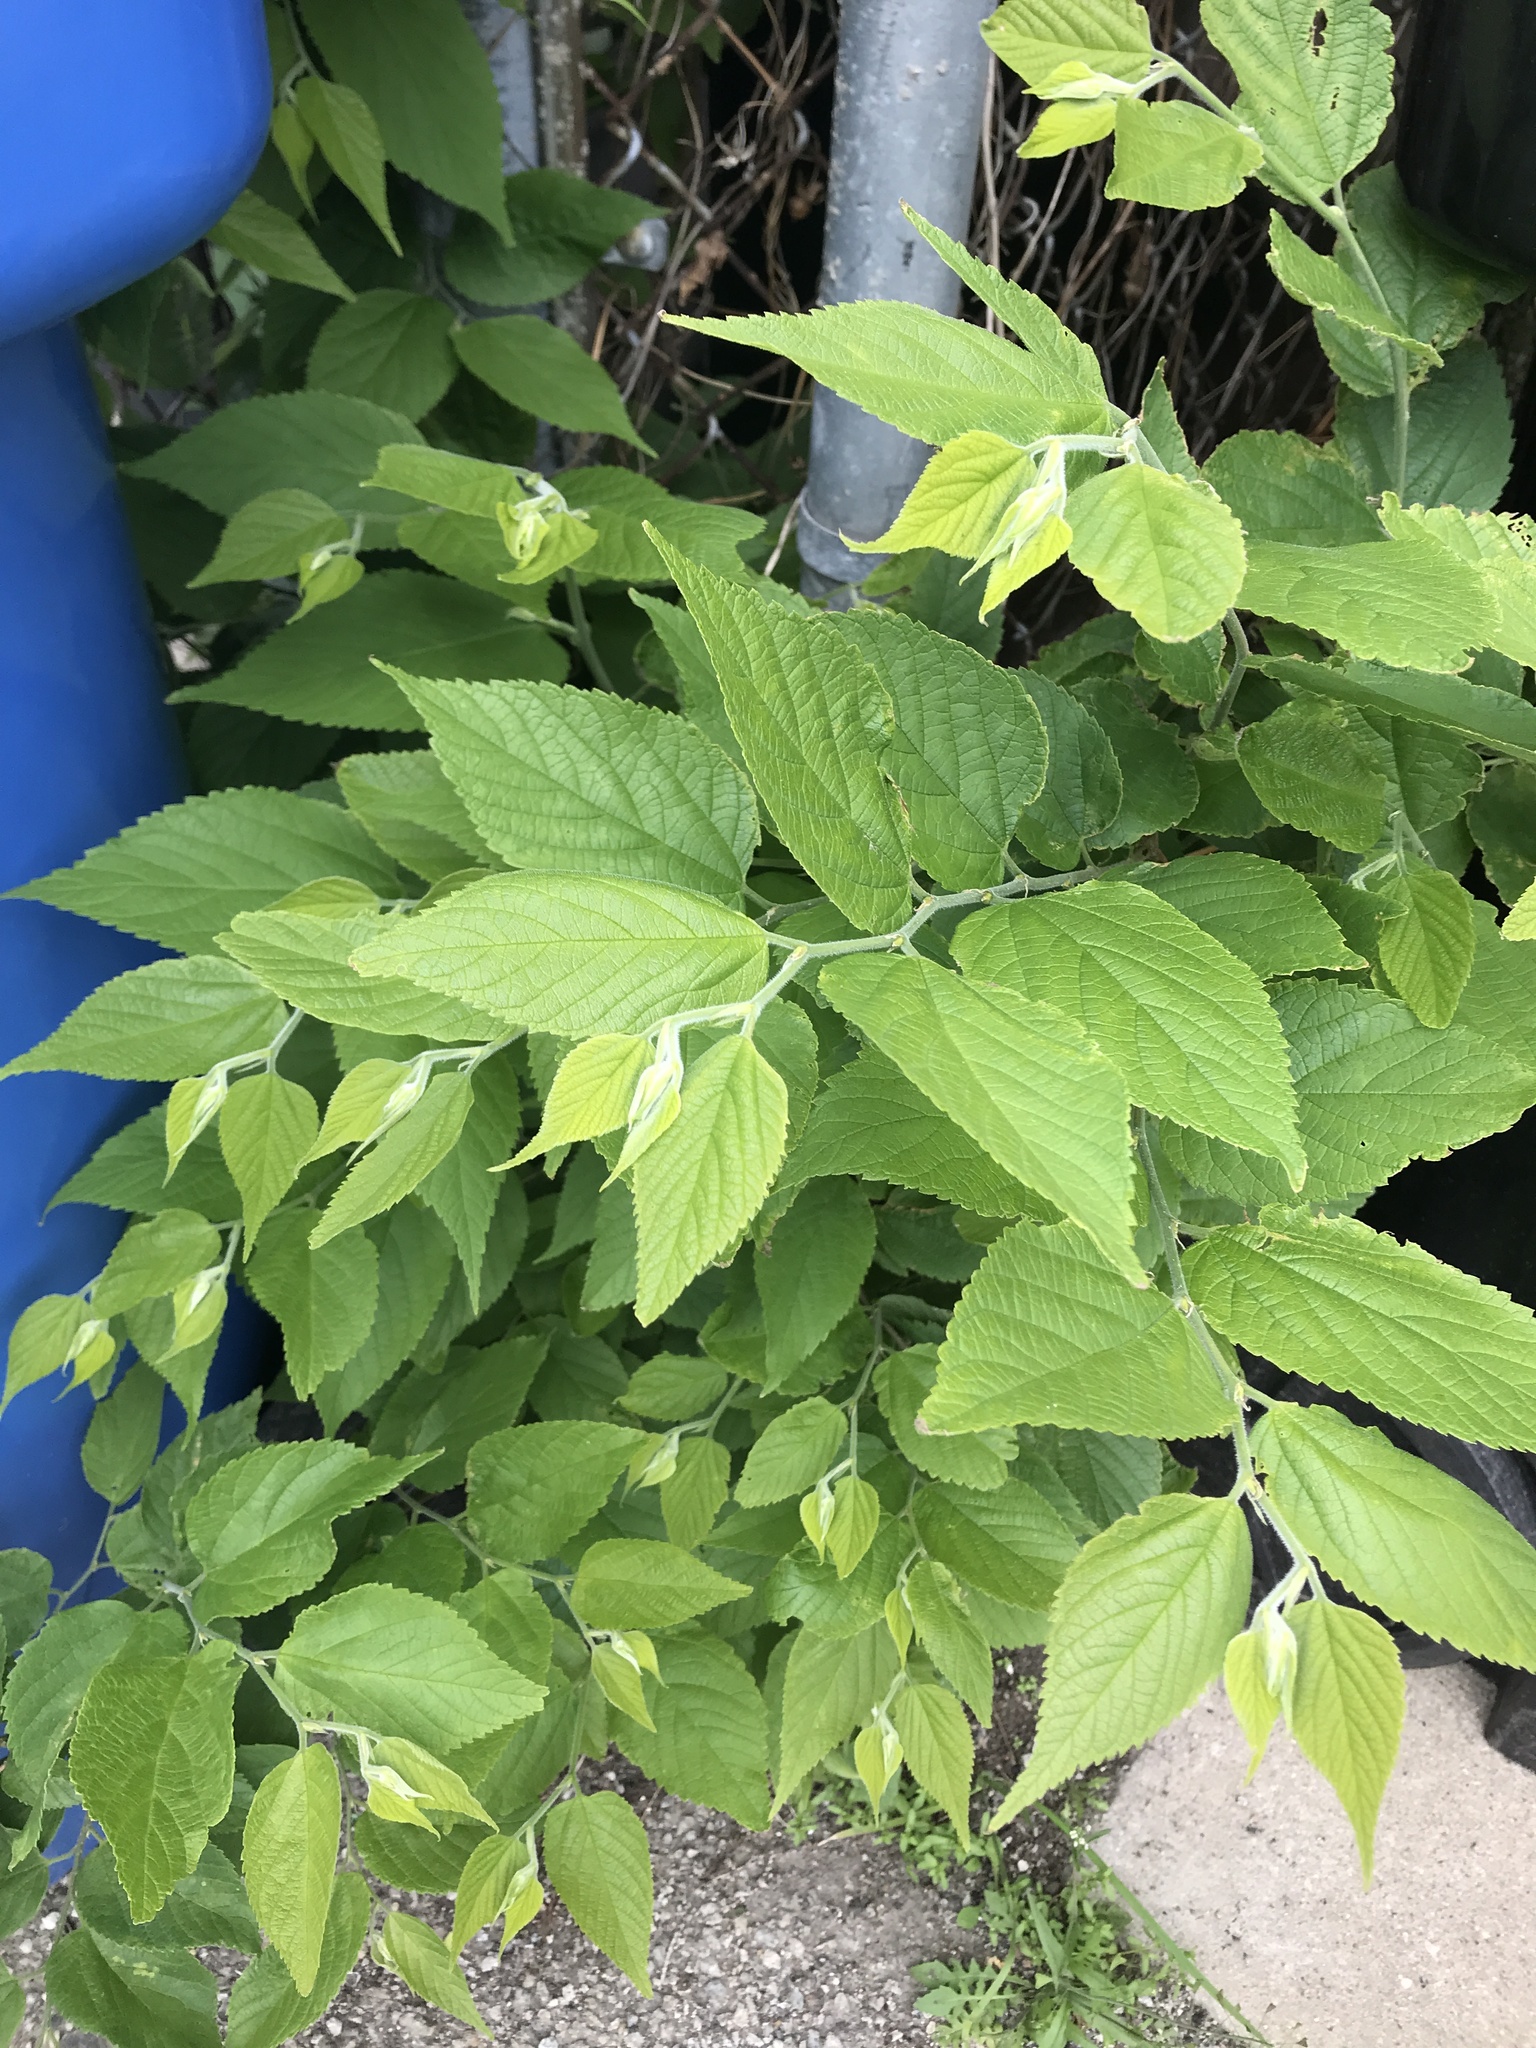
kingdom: Plantae
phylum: Tracheophyta
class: Magnoliopsida
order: Rosales
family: Cannabaceae
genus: Celtis
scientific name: Celtis occidentalis
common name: Common hackberry
